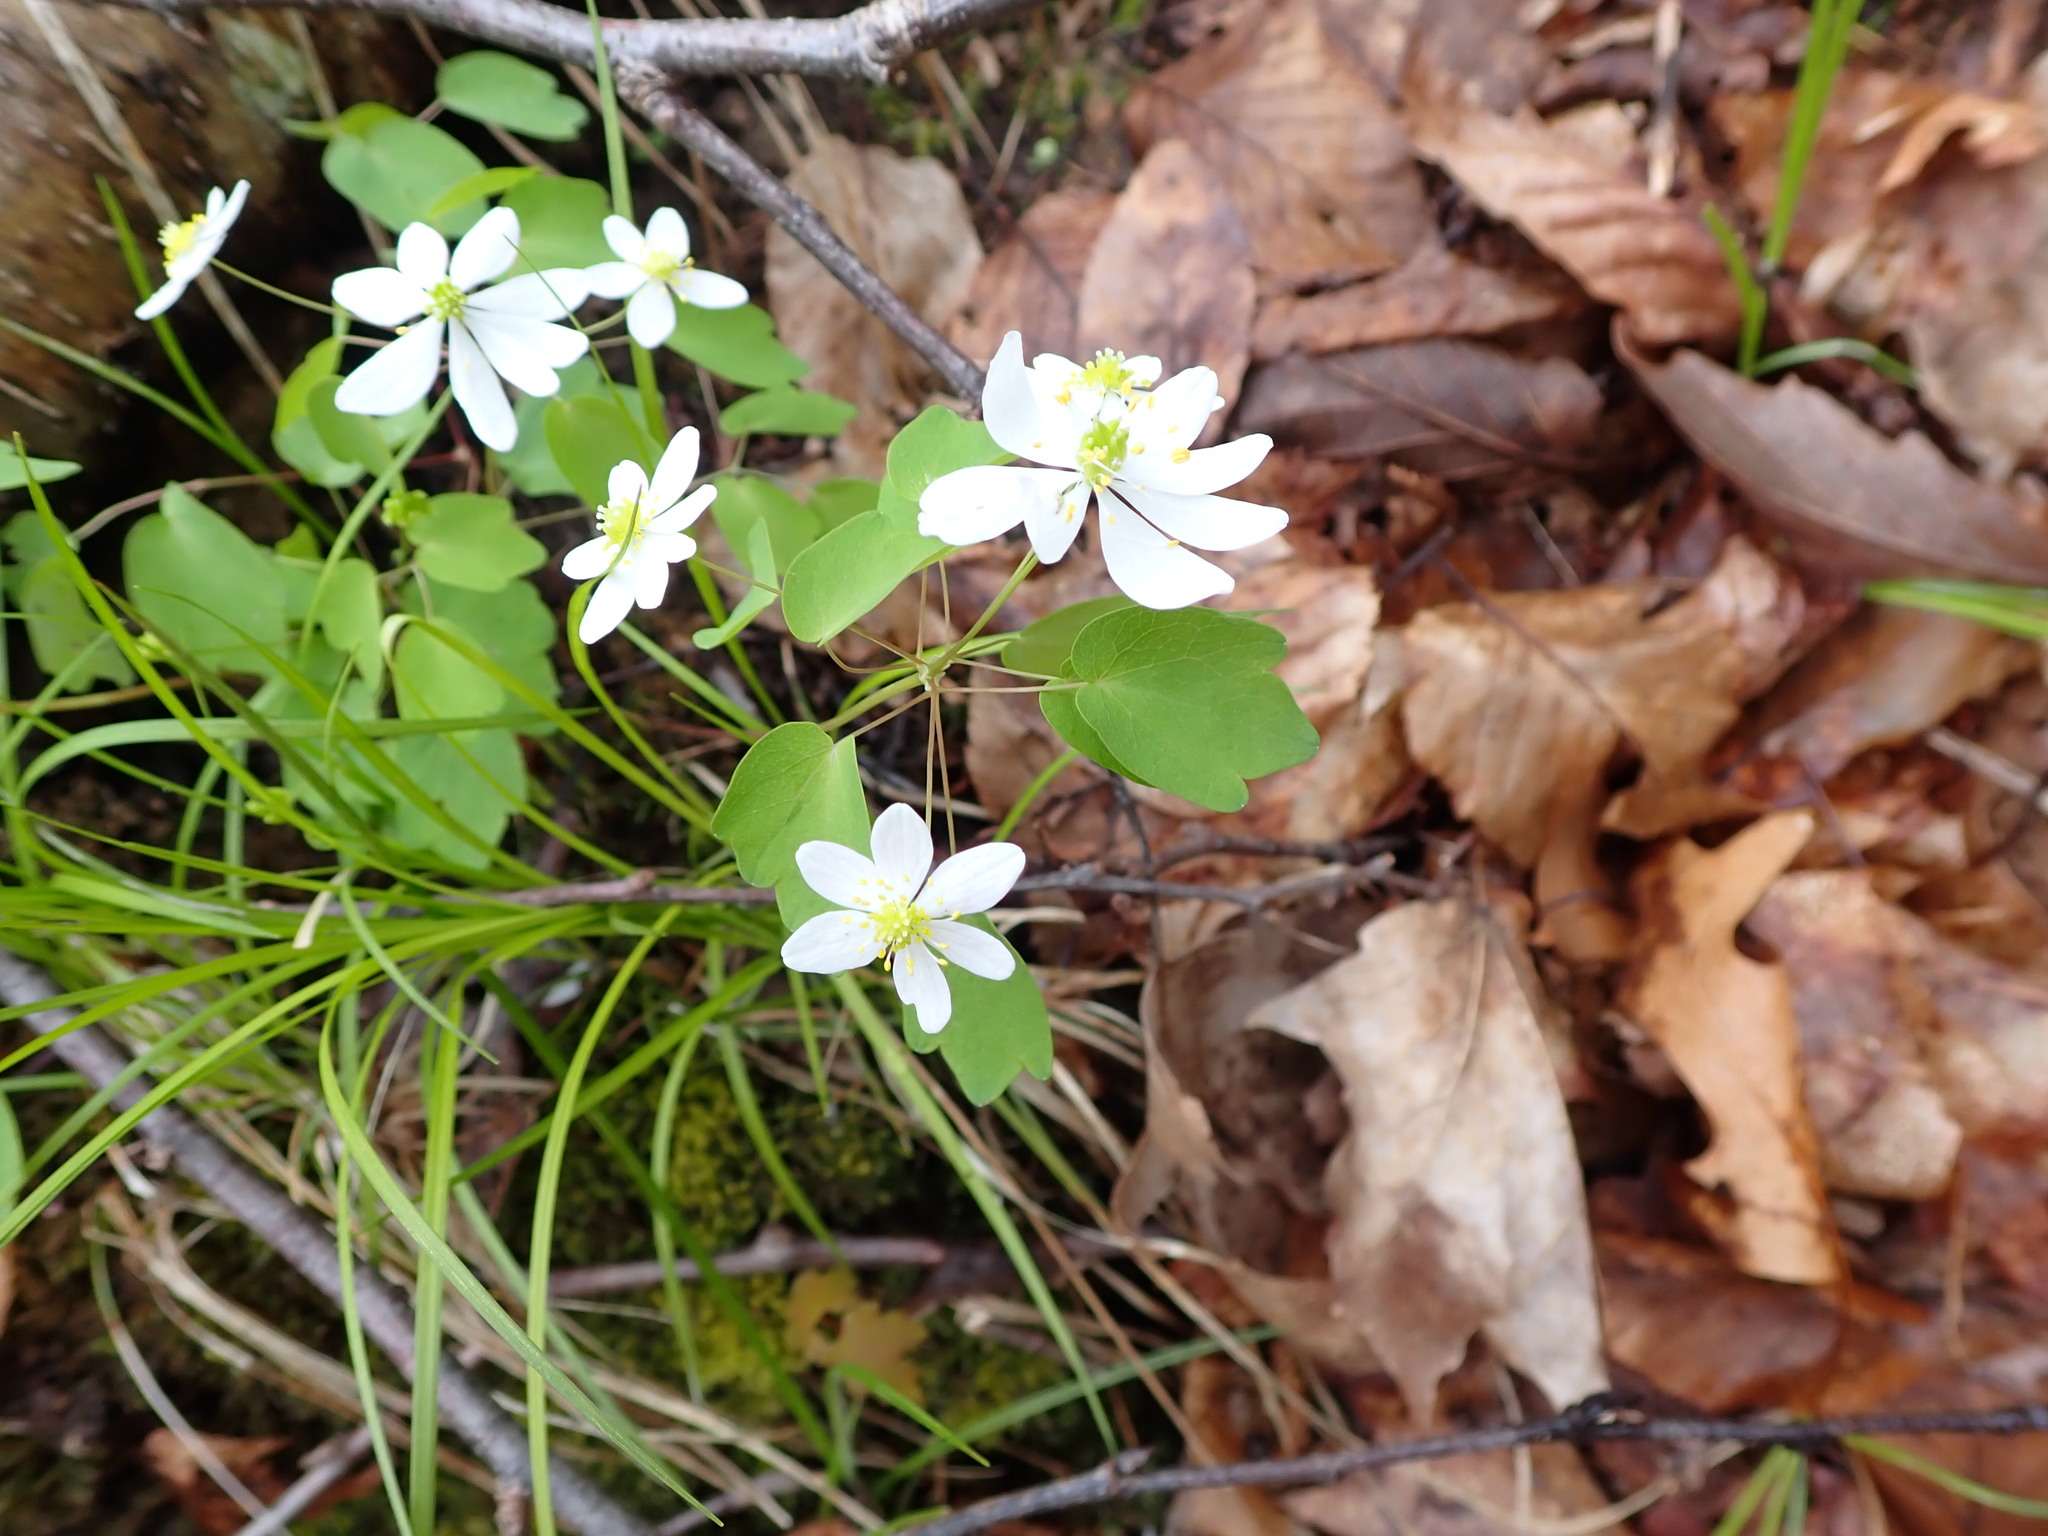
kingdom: Plantae
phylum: Tracheophyta
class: Magnoliopsida
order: Ranunculales
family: Ranunculaceae
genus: Thalictrum
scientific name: Thalictrum thalictroides
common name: Rue-anemone
